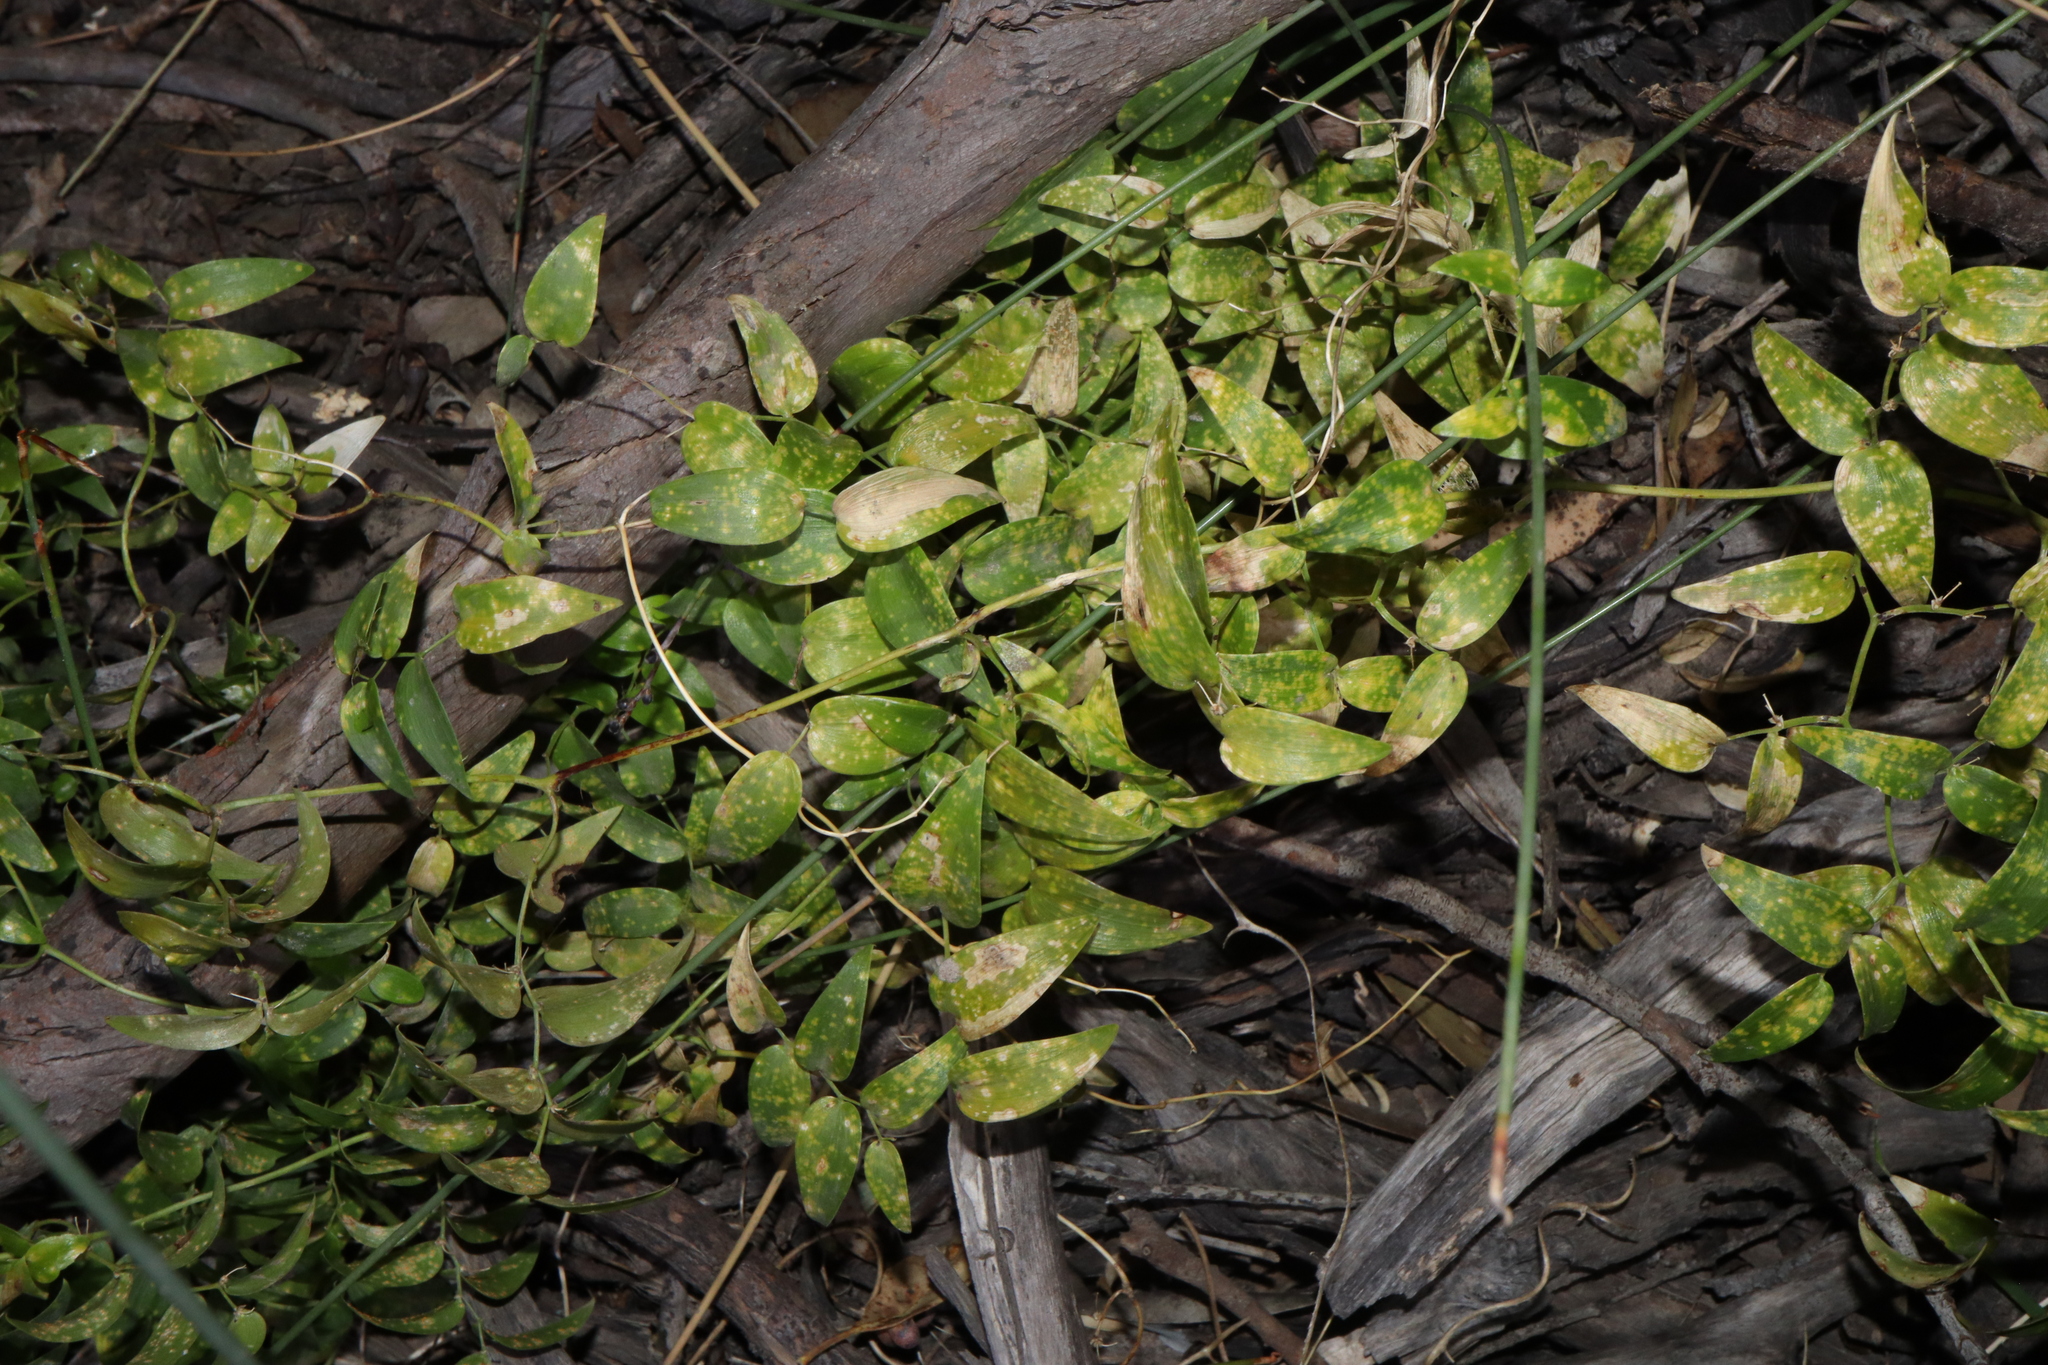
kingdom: Plantae
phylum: Tracheophyta
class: Liliopsida
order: Asparagales
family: Asparagaceae
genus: Asparagus
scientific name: Asparagus asparagoides
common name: African asparagus fern
